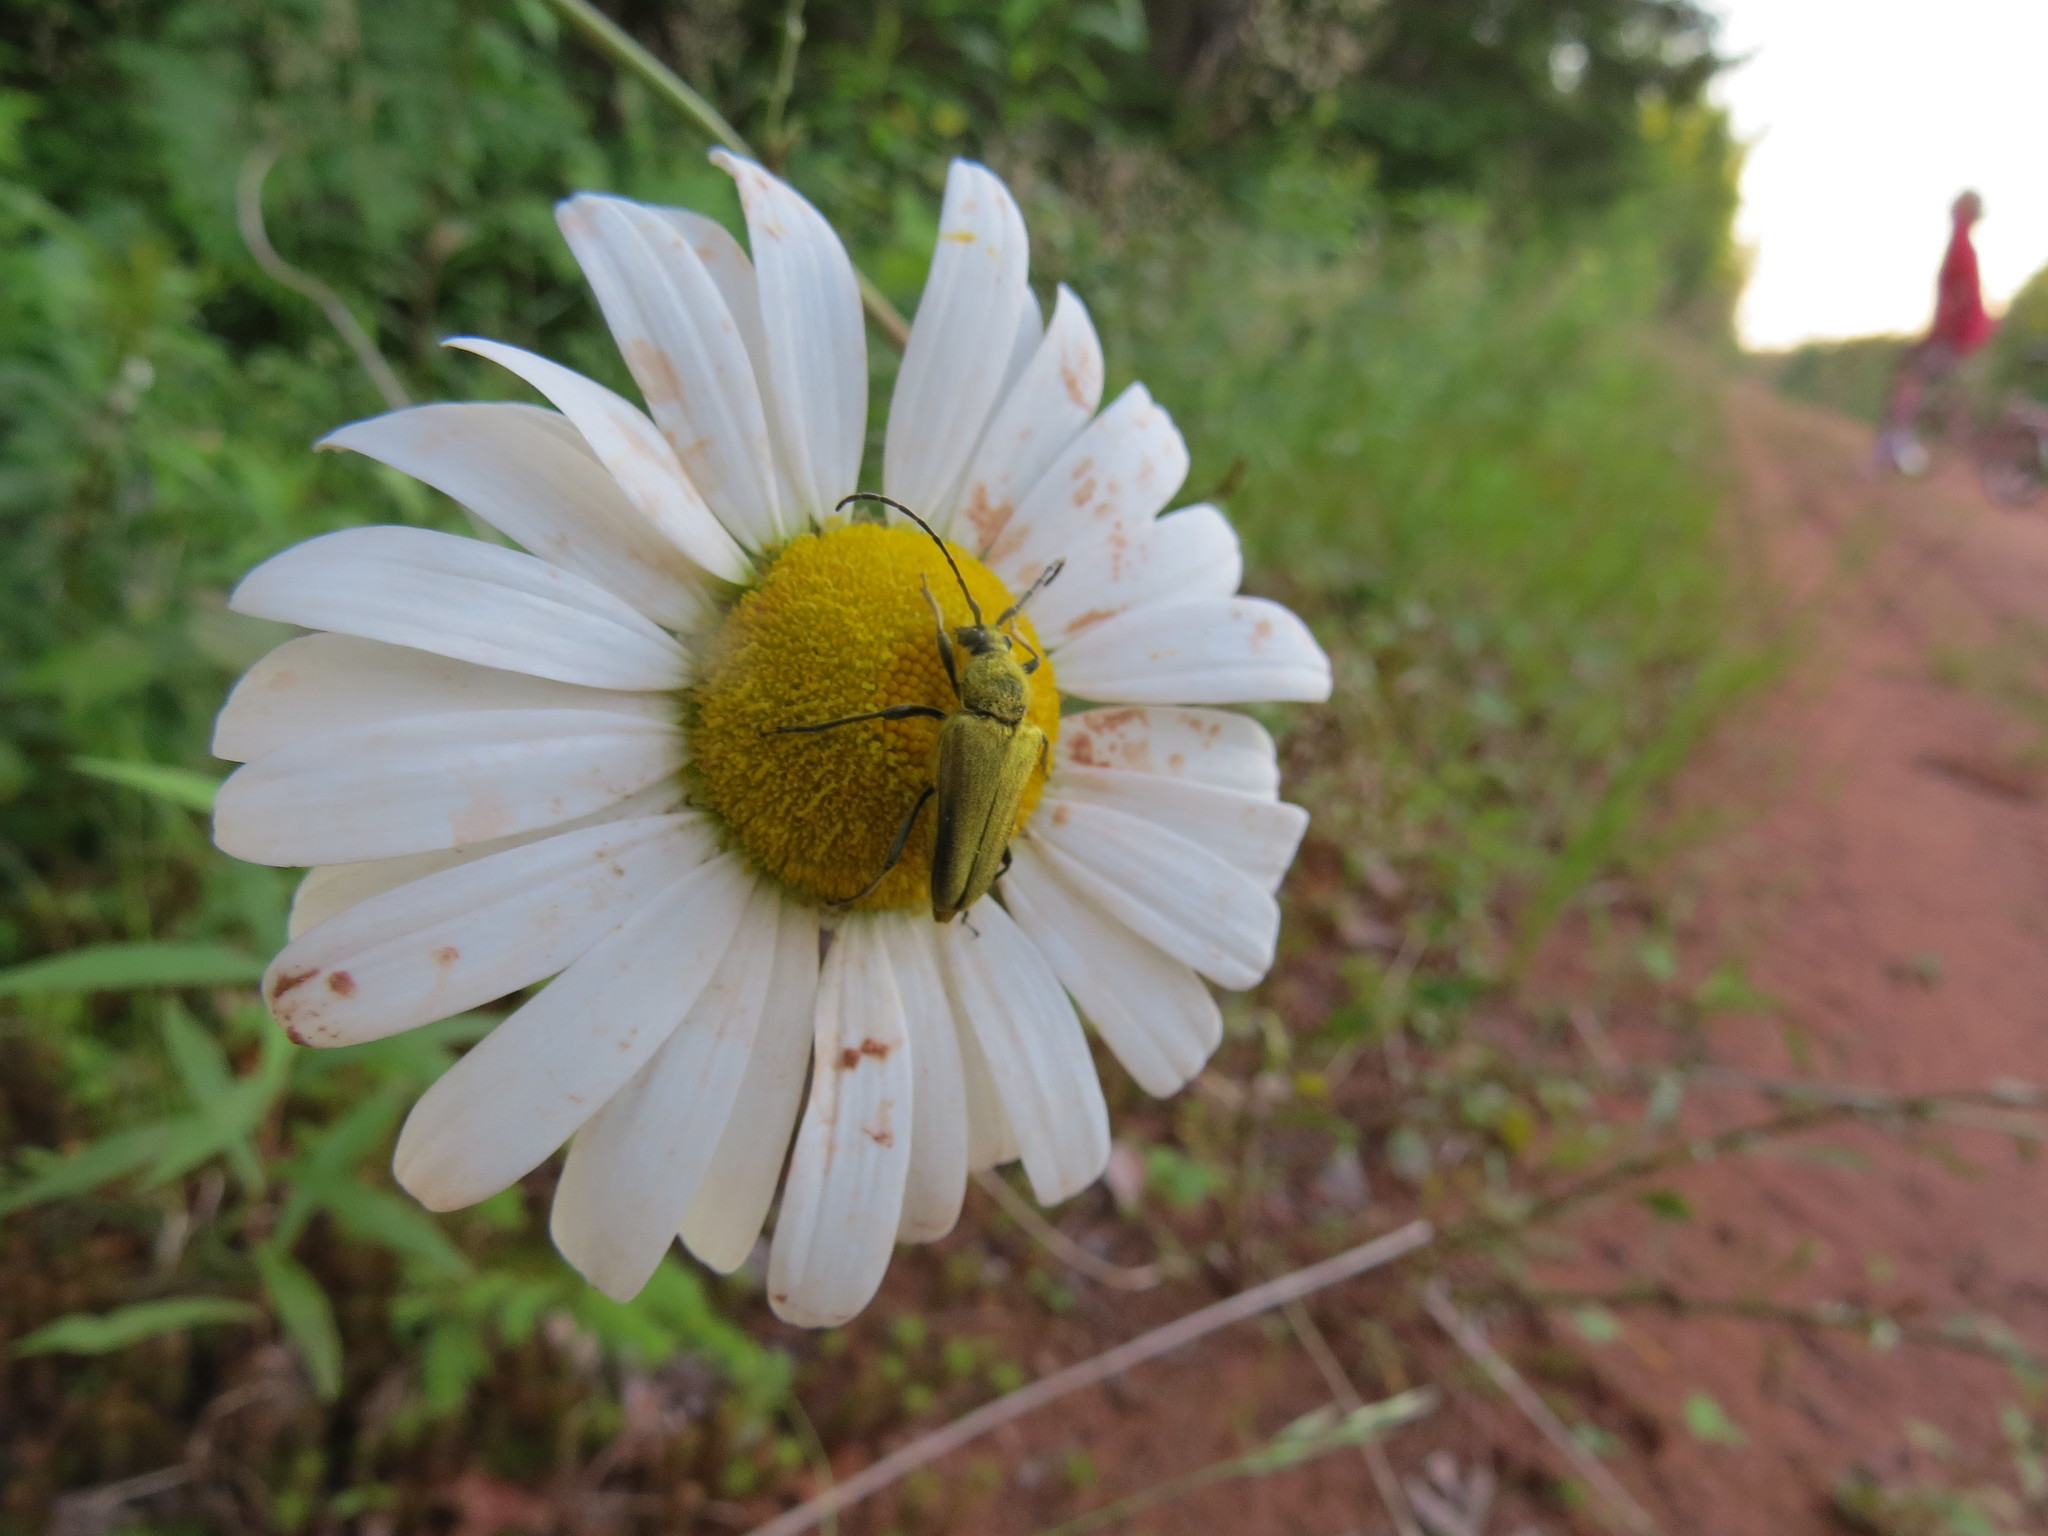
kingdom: Animalia
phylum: Arthropoda
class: Insecta
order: Coleoptera
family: Cerambycidae
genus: Cosmosalia
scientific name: Cosmosalia chrysocoma
